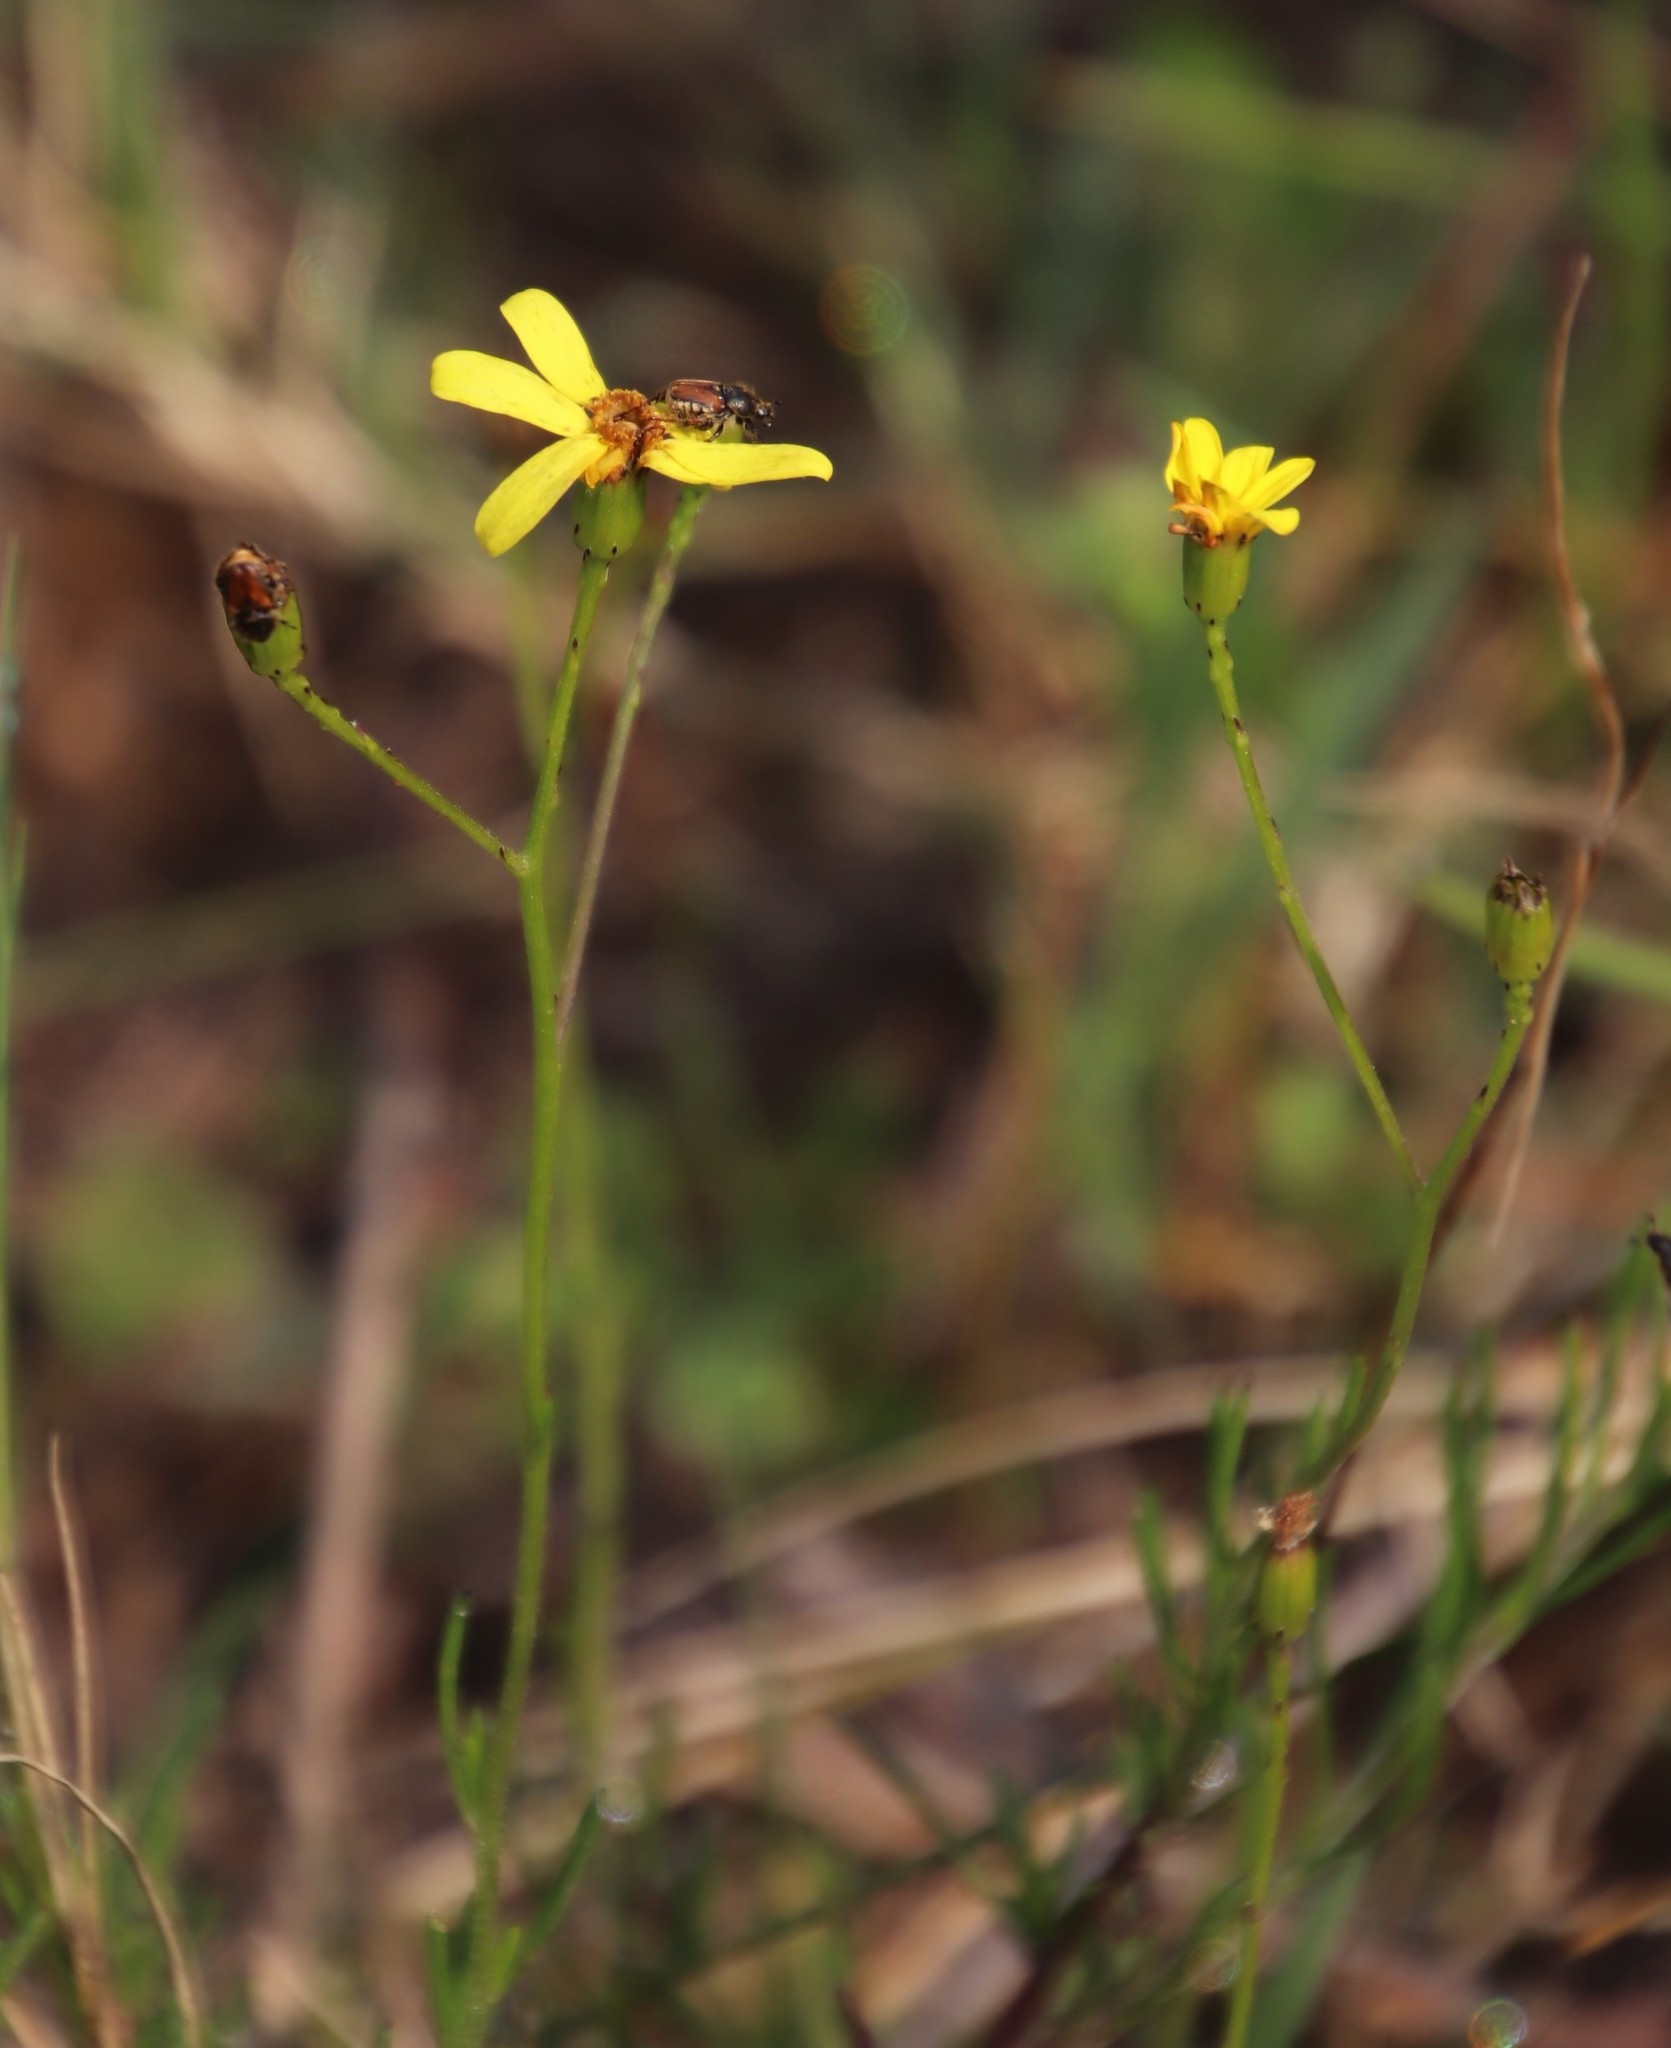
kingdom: Plantae
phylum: Tracheophyta
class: Magnoliopsida
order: Asterales
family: Asteraceae
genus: Senecio
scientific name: Senecio burchellii
